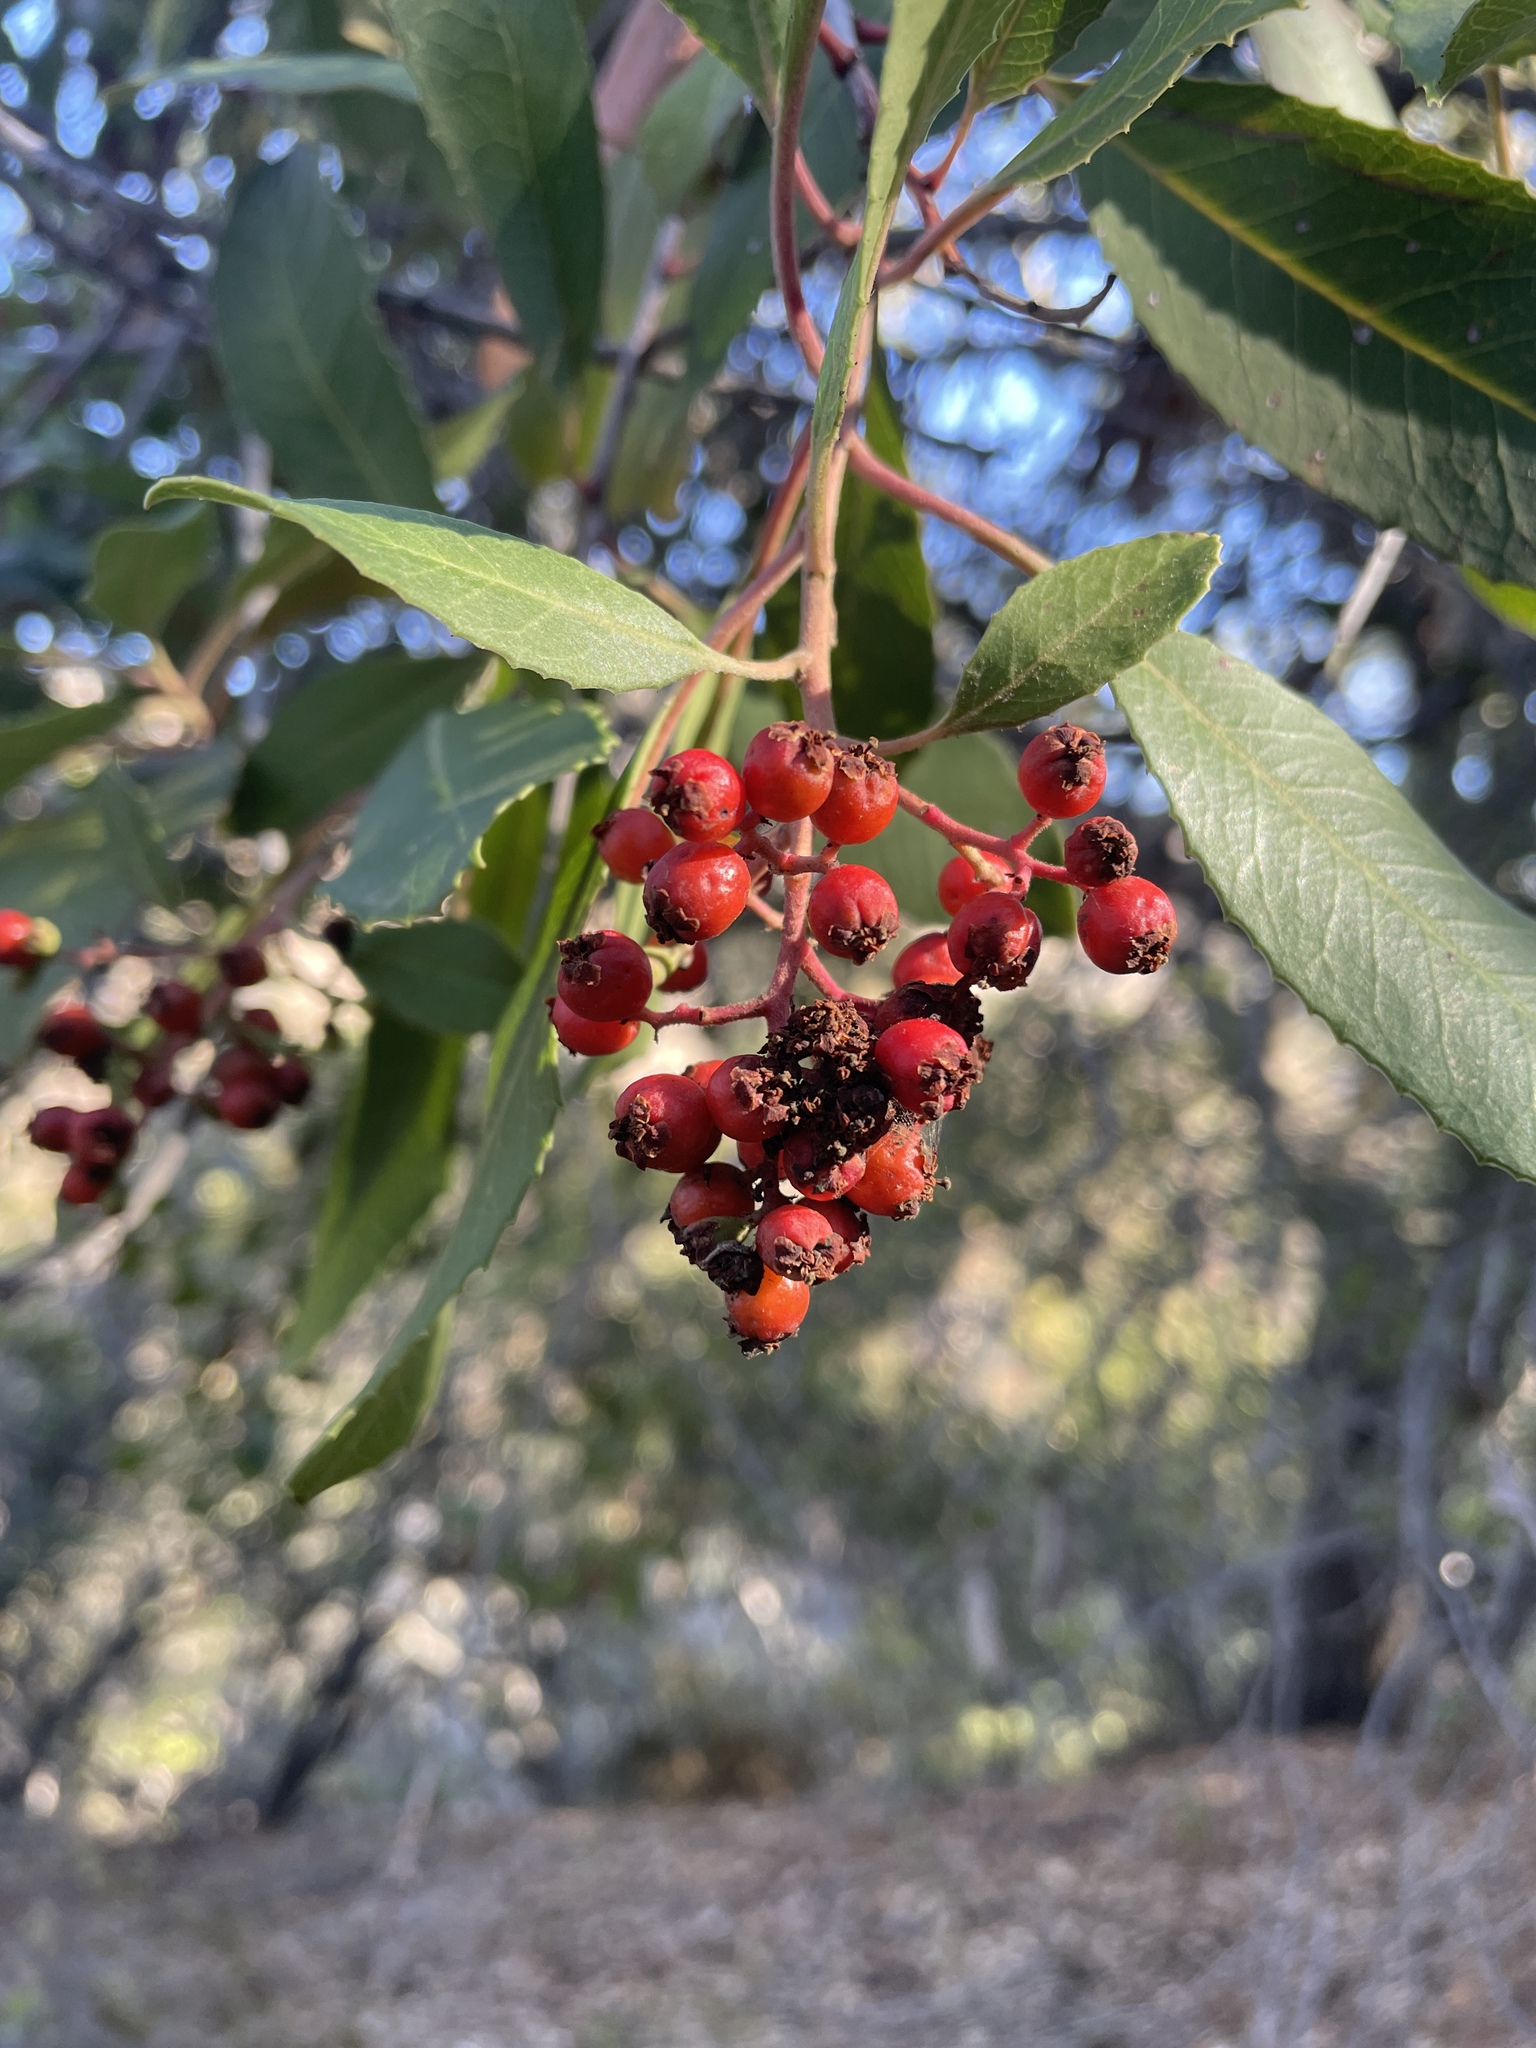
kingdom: Plantae
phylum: Tracheophyta
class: Magnoliopsida
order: Rosales
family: Rosaceae
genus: Heteromeles
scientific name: Heteromeles arbutifolia
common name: California-holly
